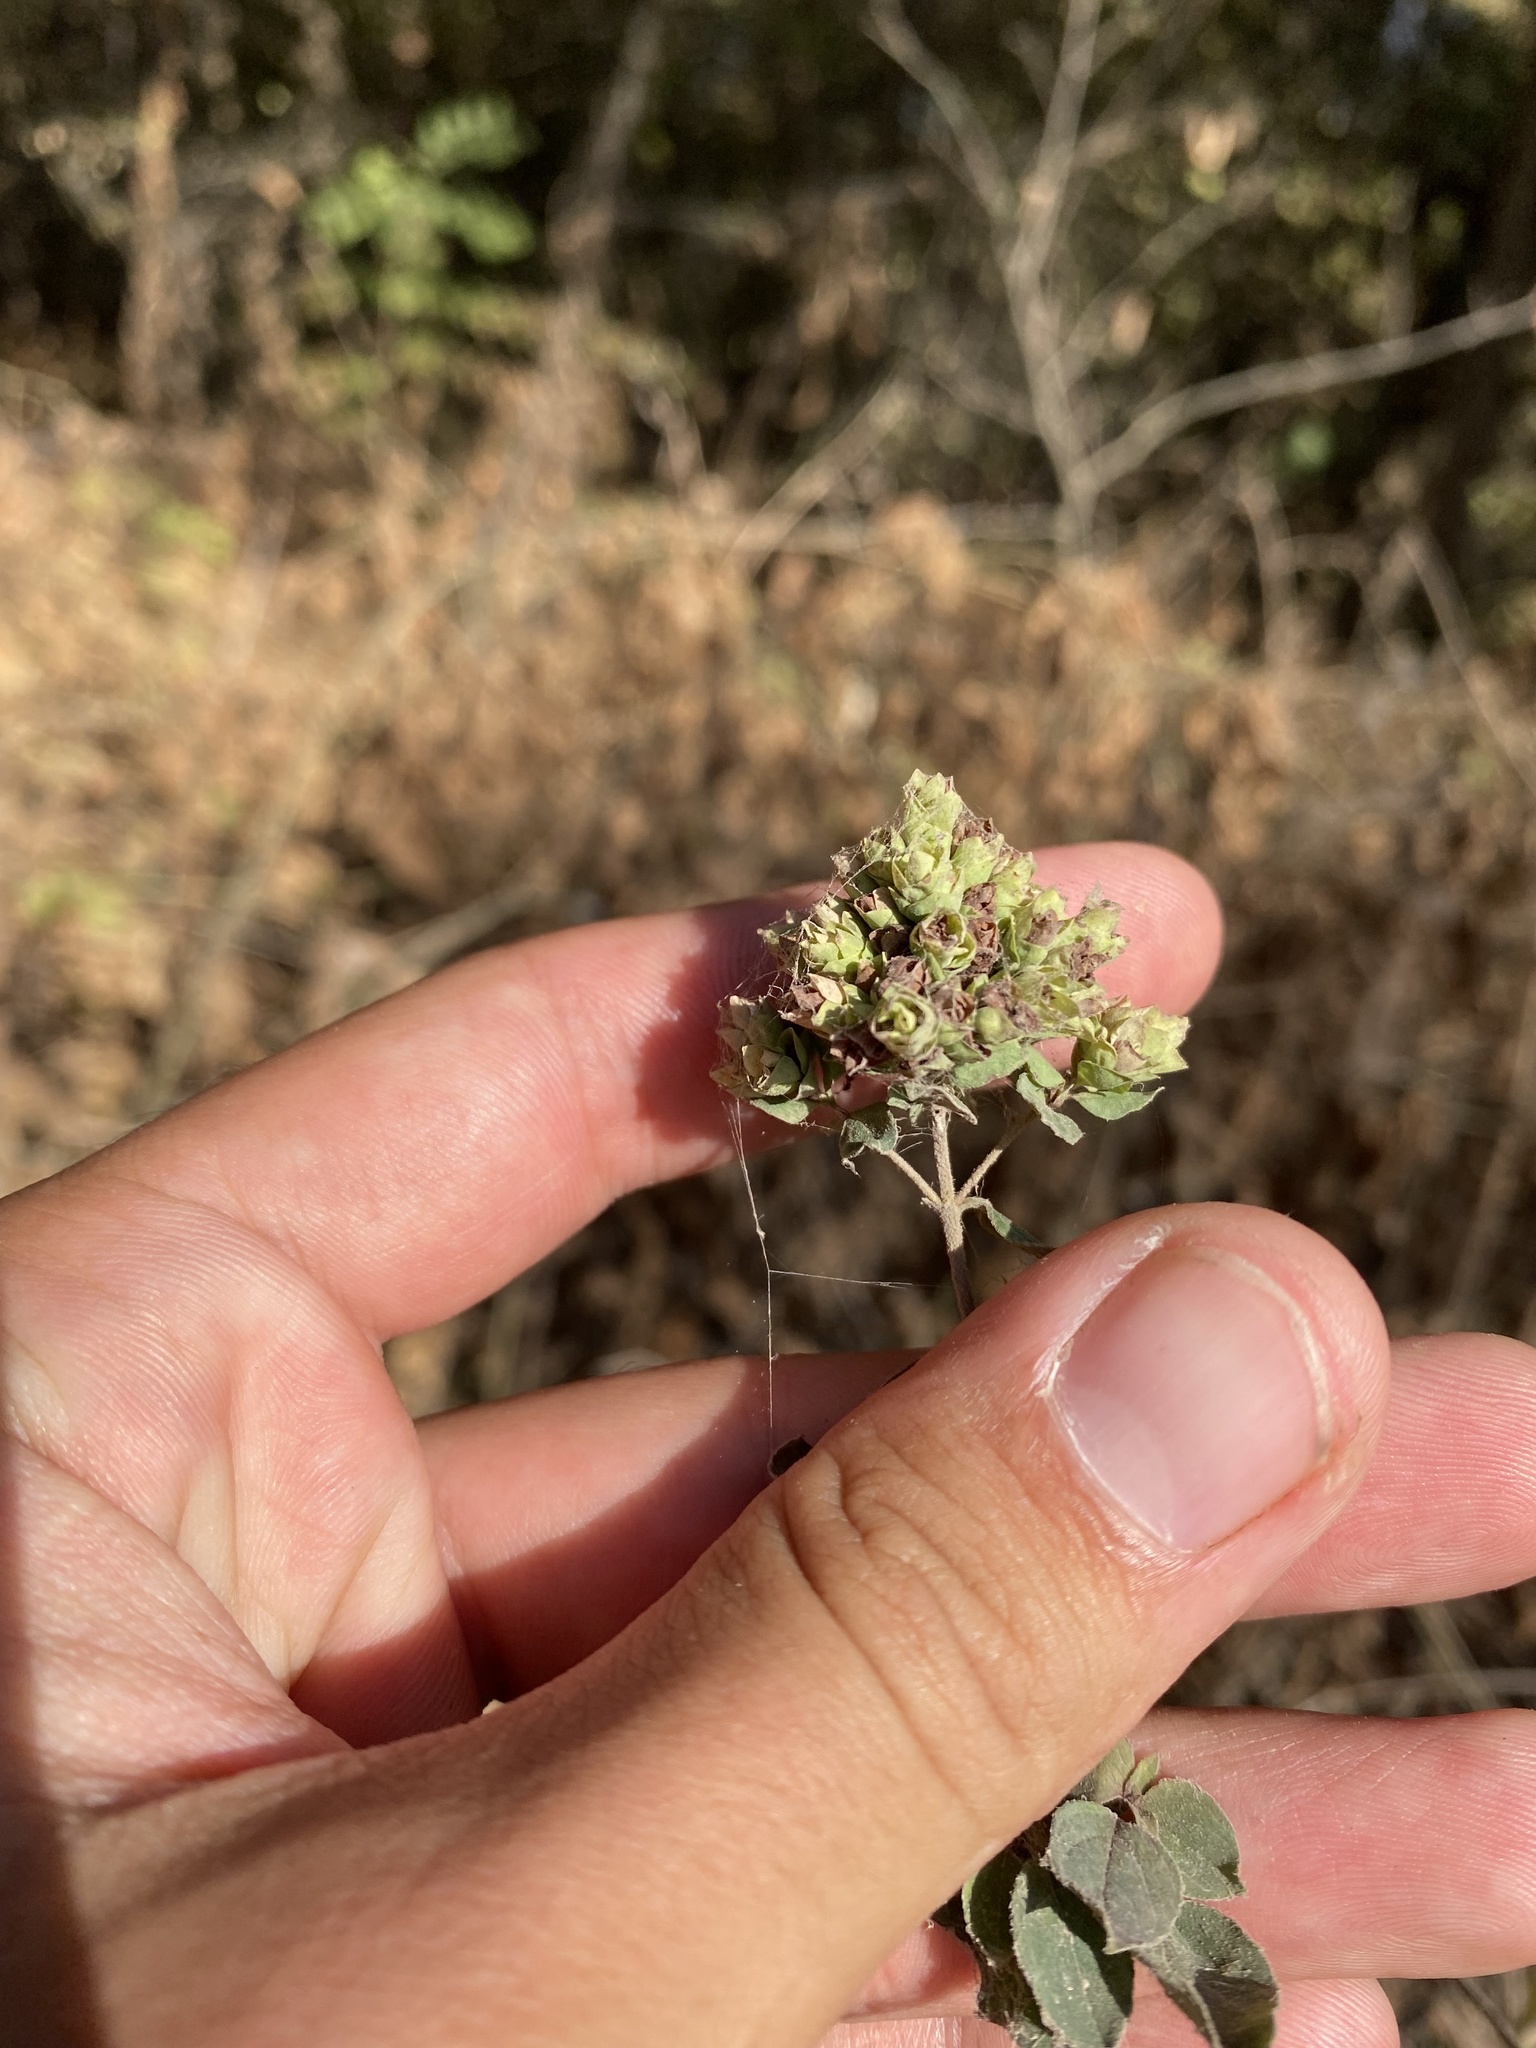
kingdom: Plantae
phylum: Tracheophyta
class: Magnoliopsida
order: Lamiales
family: Lamiaceae
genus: Origanum
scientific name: Origanum vulgare
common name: Wild marjoram
